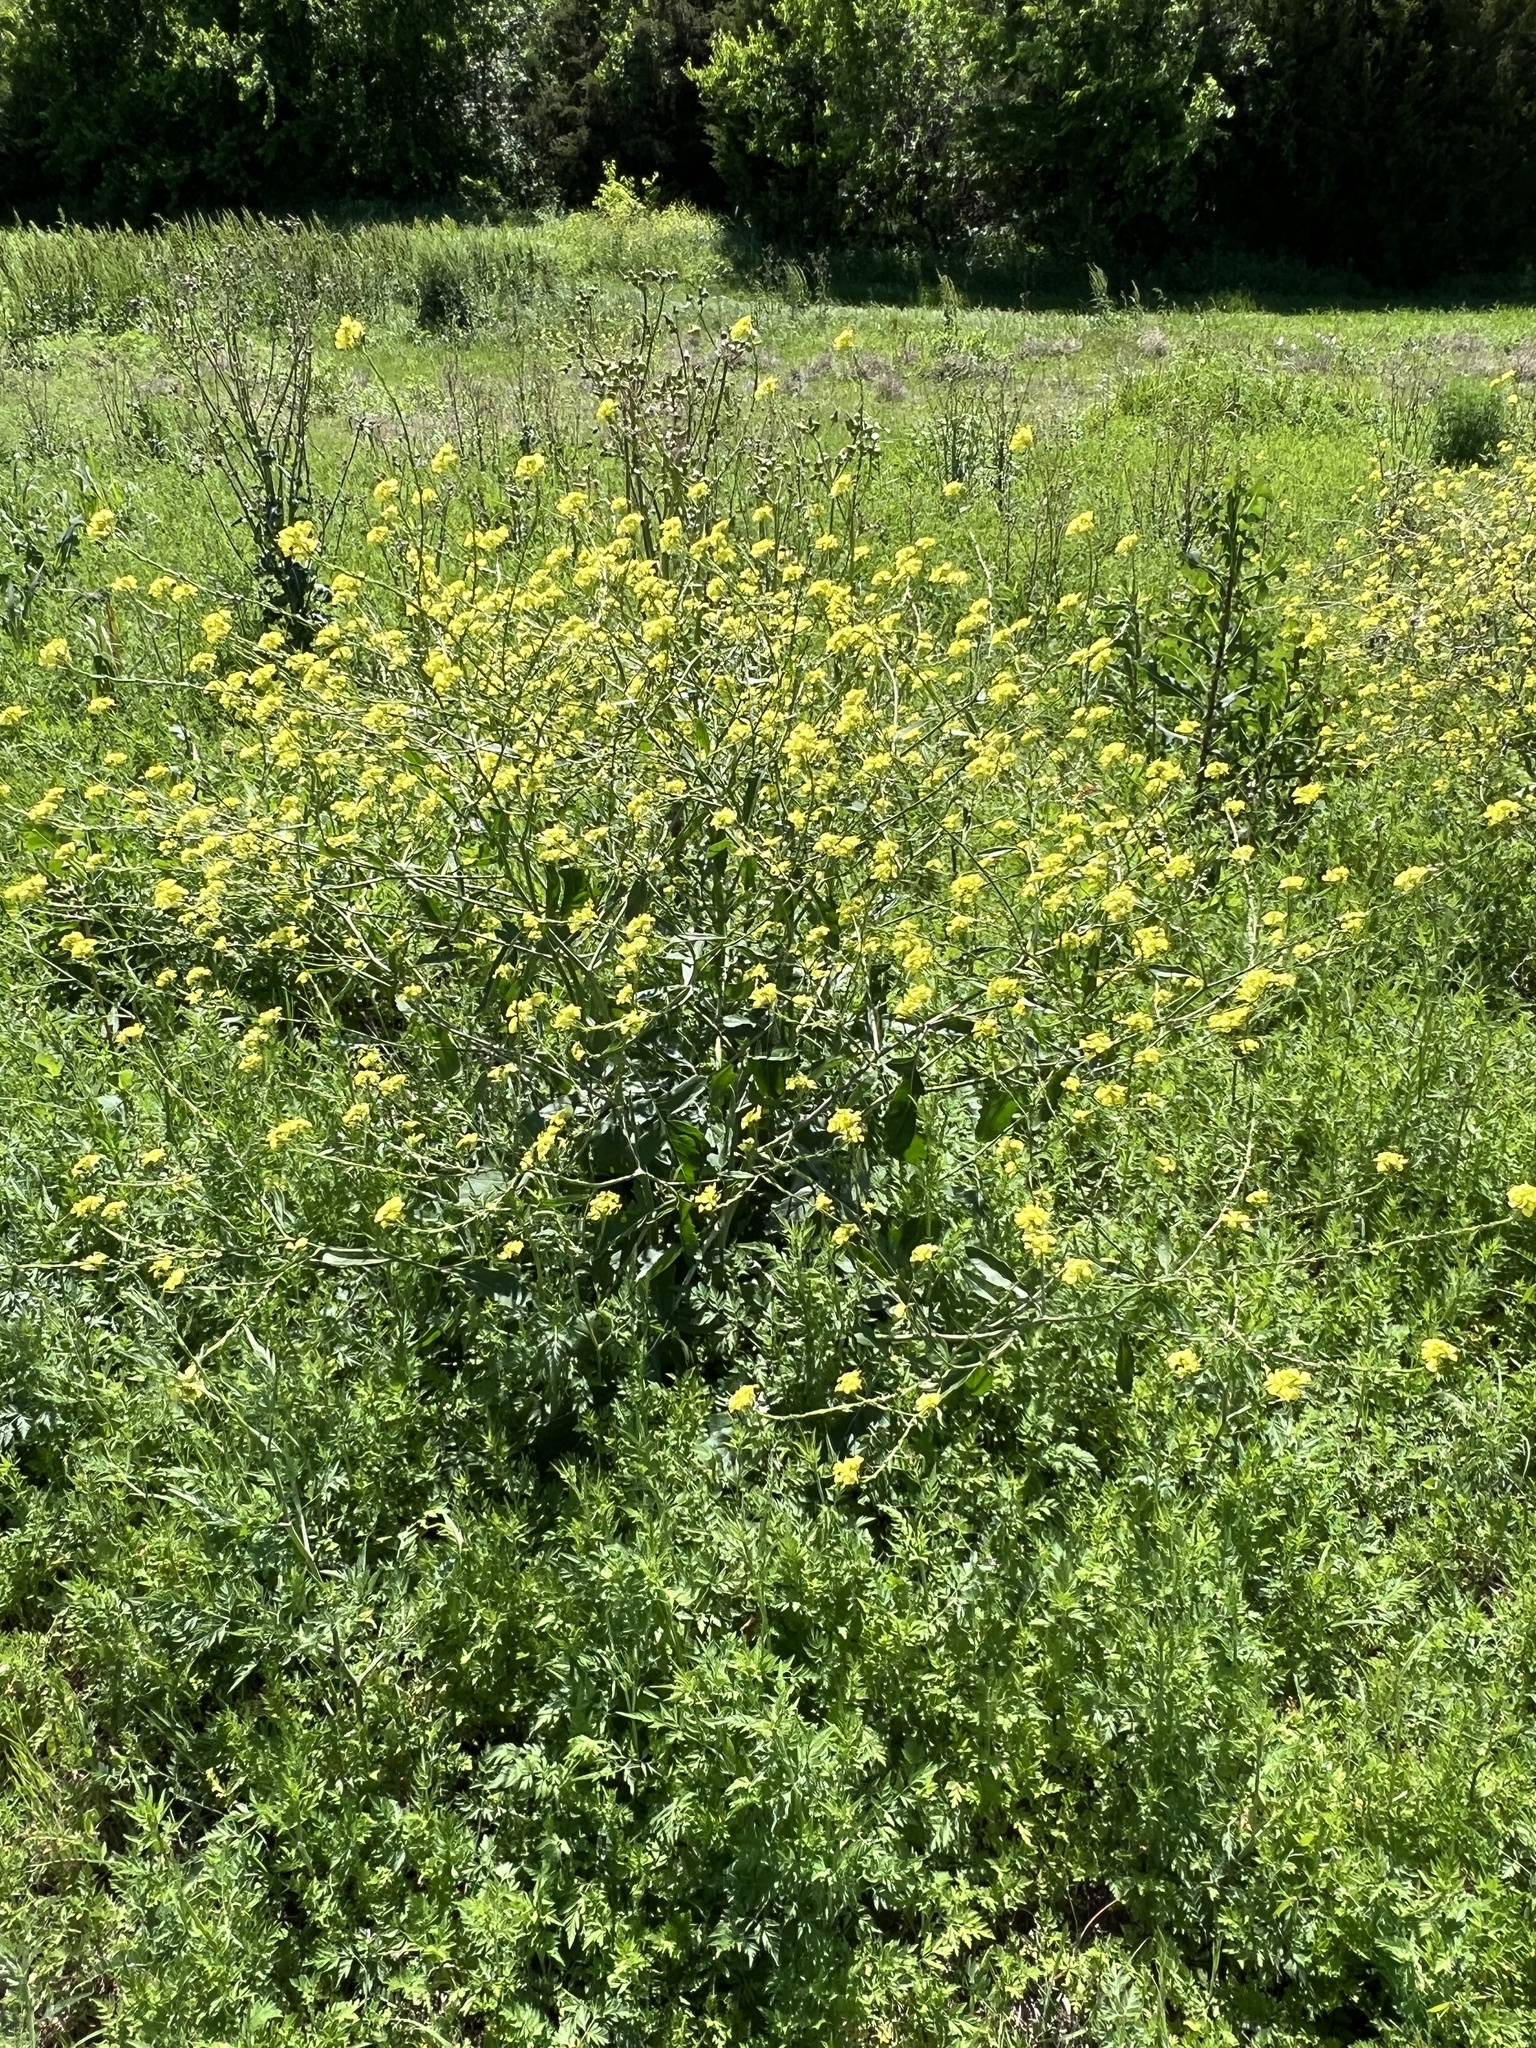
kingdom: Plantae
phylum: Tracheophyta
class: Magnoliopsida
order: Brassicales
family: Brassicaceae
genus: Rapistrum
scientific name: Rapistrum rugosum
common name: Annual bastardcabbage
